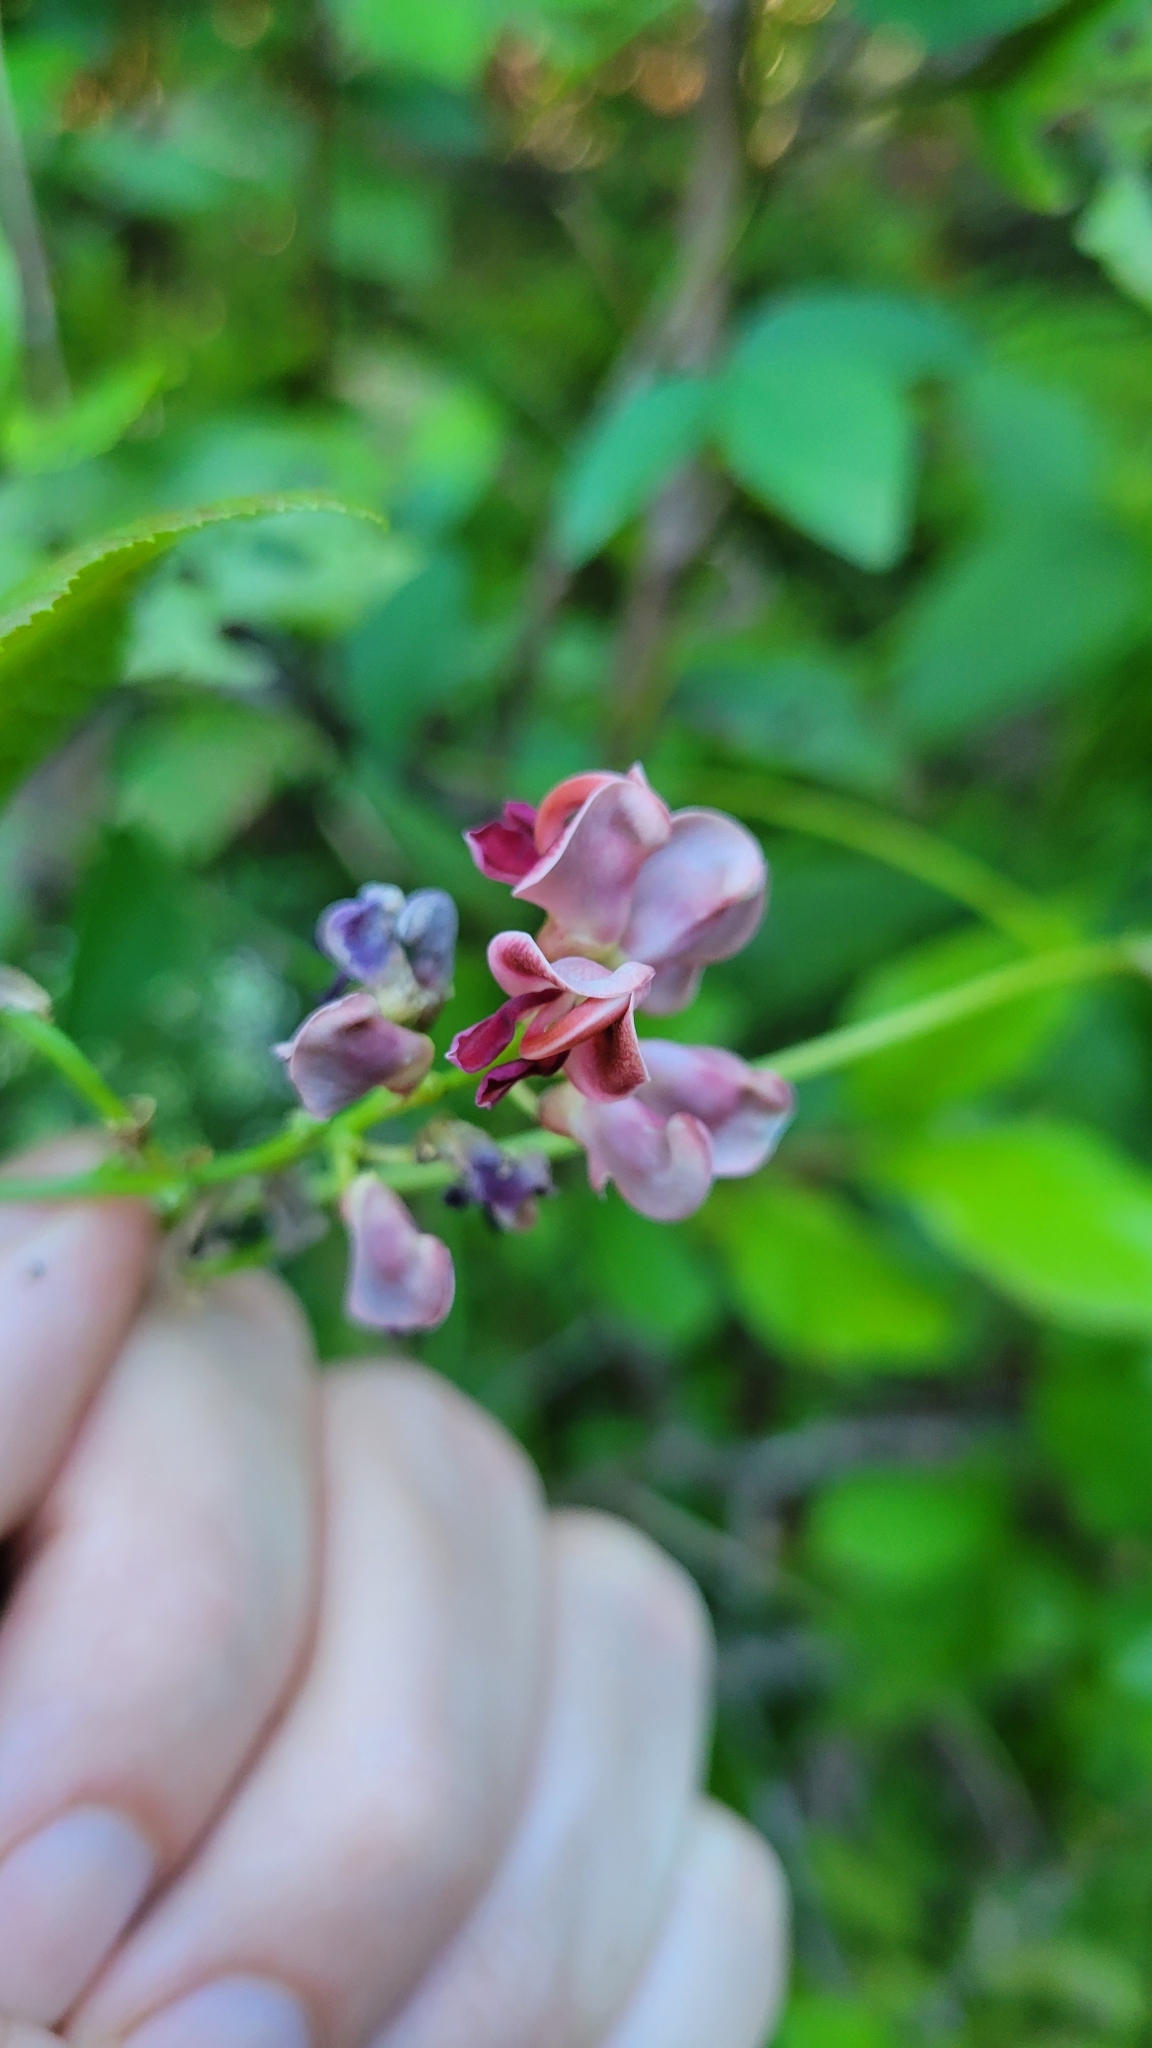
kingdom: Plantae
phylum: Tracheophyta
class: Magnoliopsida
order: Fabales
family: Fabaceae
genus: Apios
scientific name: Apios americana
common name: American potato-bean
